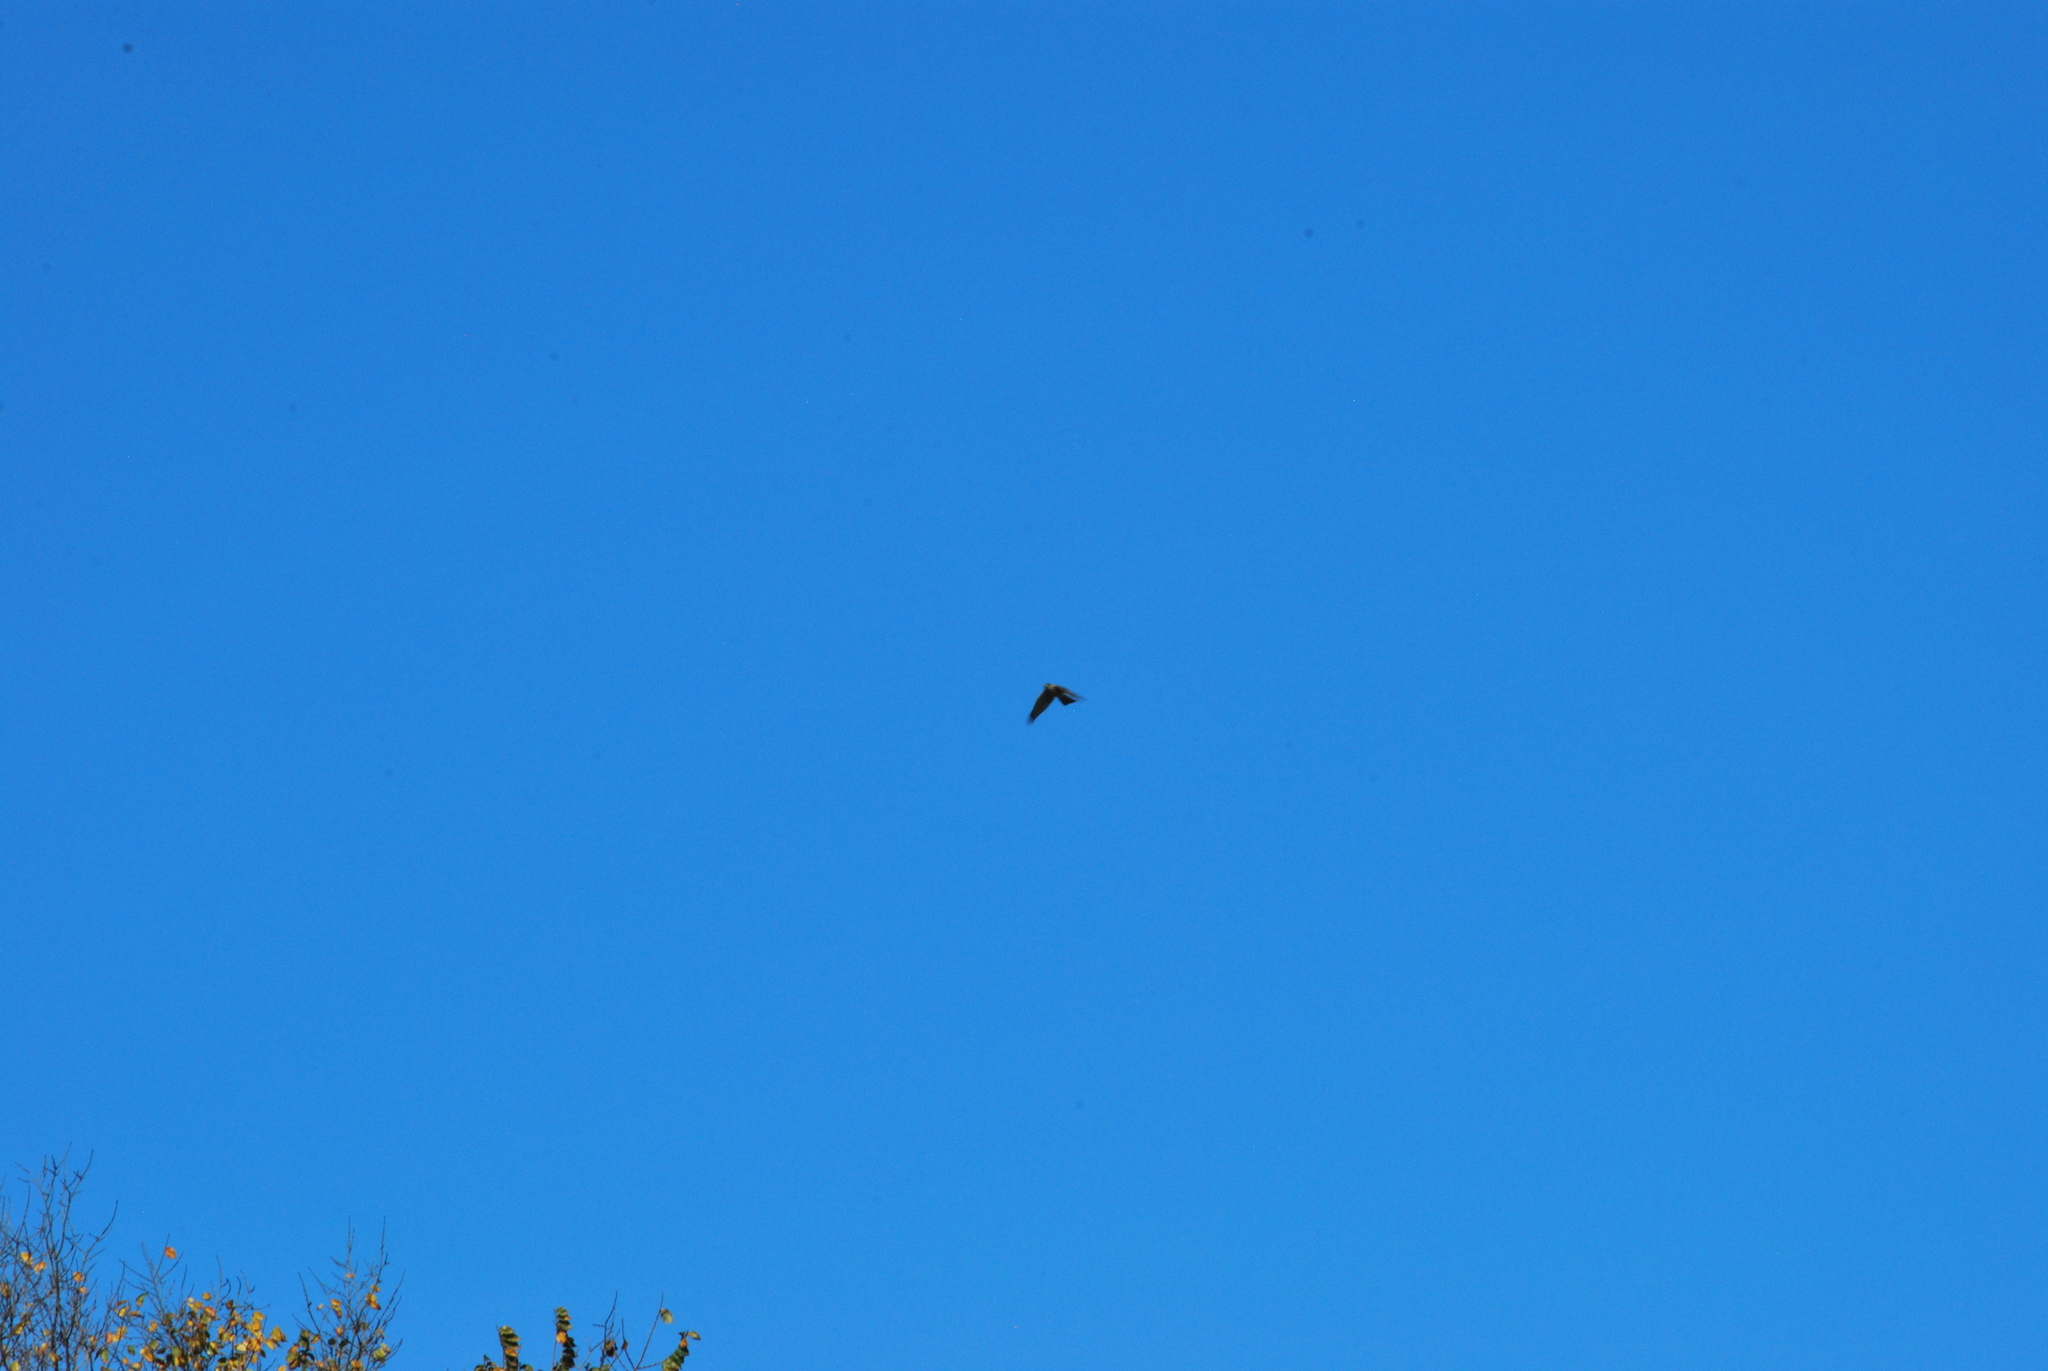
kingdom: Animalia
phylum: Chordata
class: Aves
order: Accipitriformes
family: Accipitridae
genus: Accipiter
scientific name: Accipiter striatus
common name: Sharp-shinned hawk
